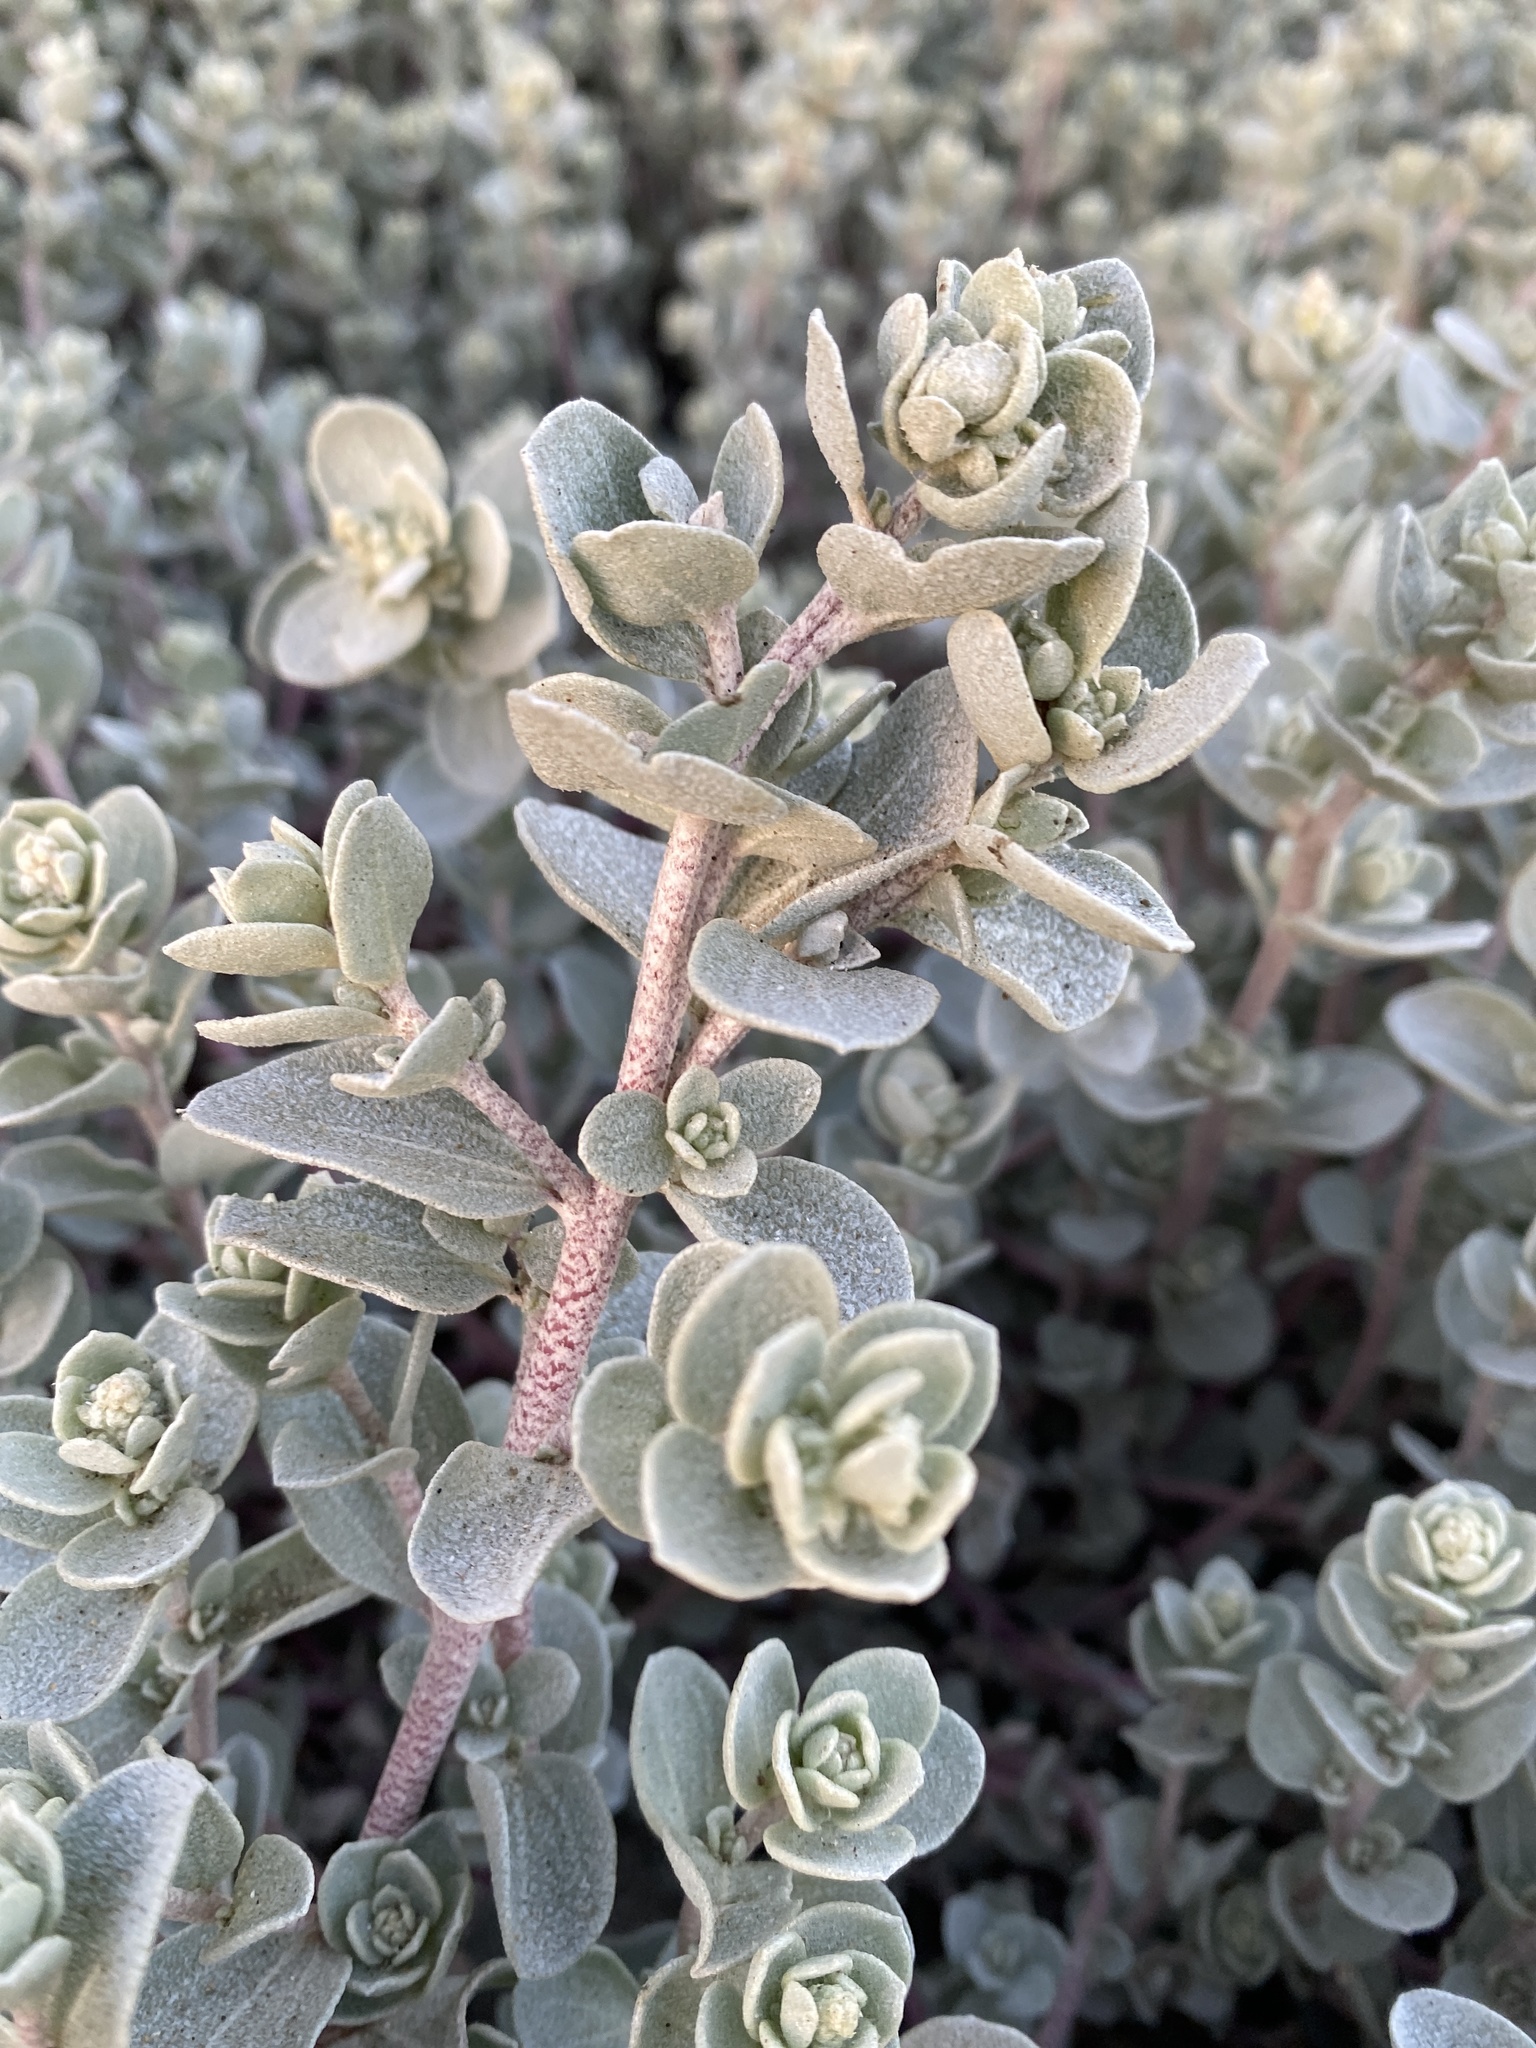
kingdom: Plantae
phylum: Tracheophyta
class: Magnoliopsida
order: Caryophyllales
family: Amaranthaceae
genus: Atriplex
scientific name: Atriplex leucophylla
